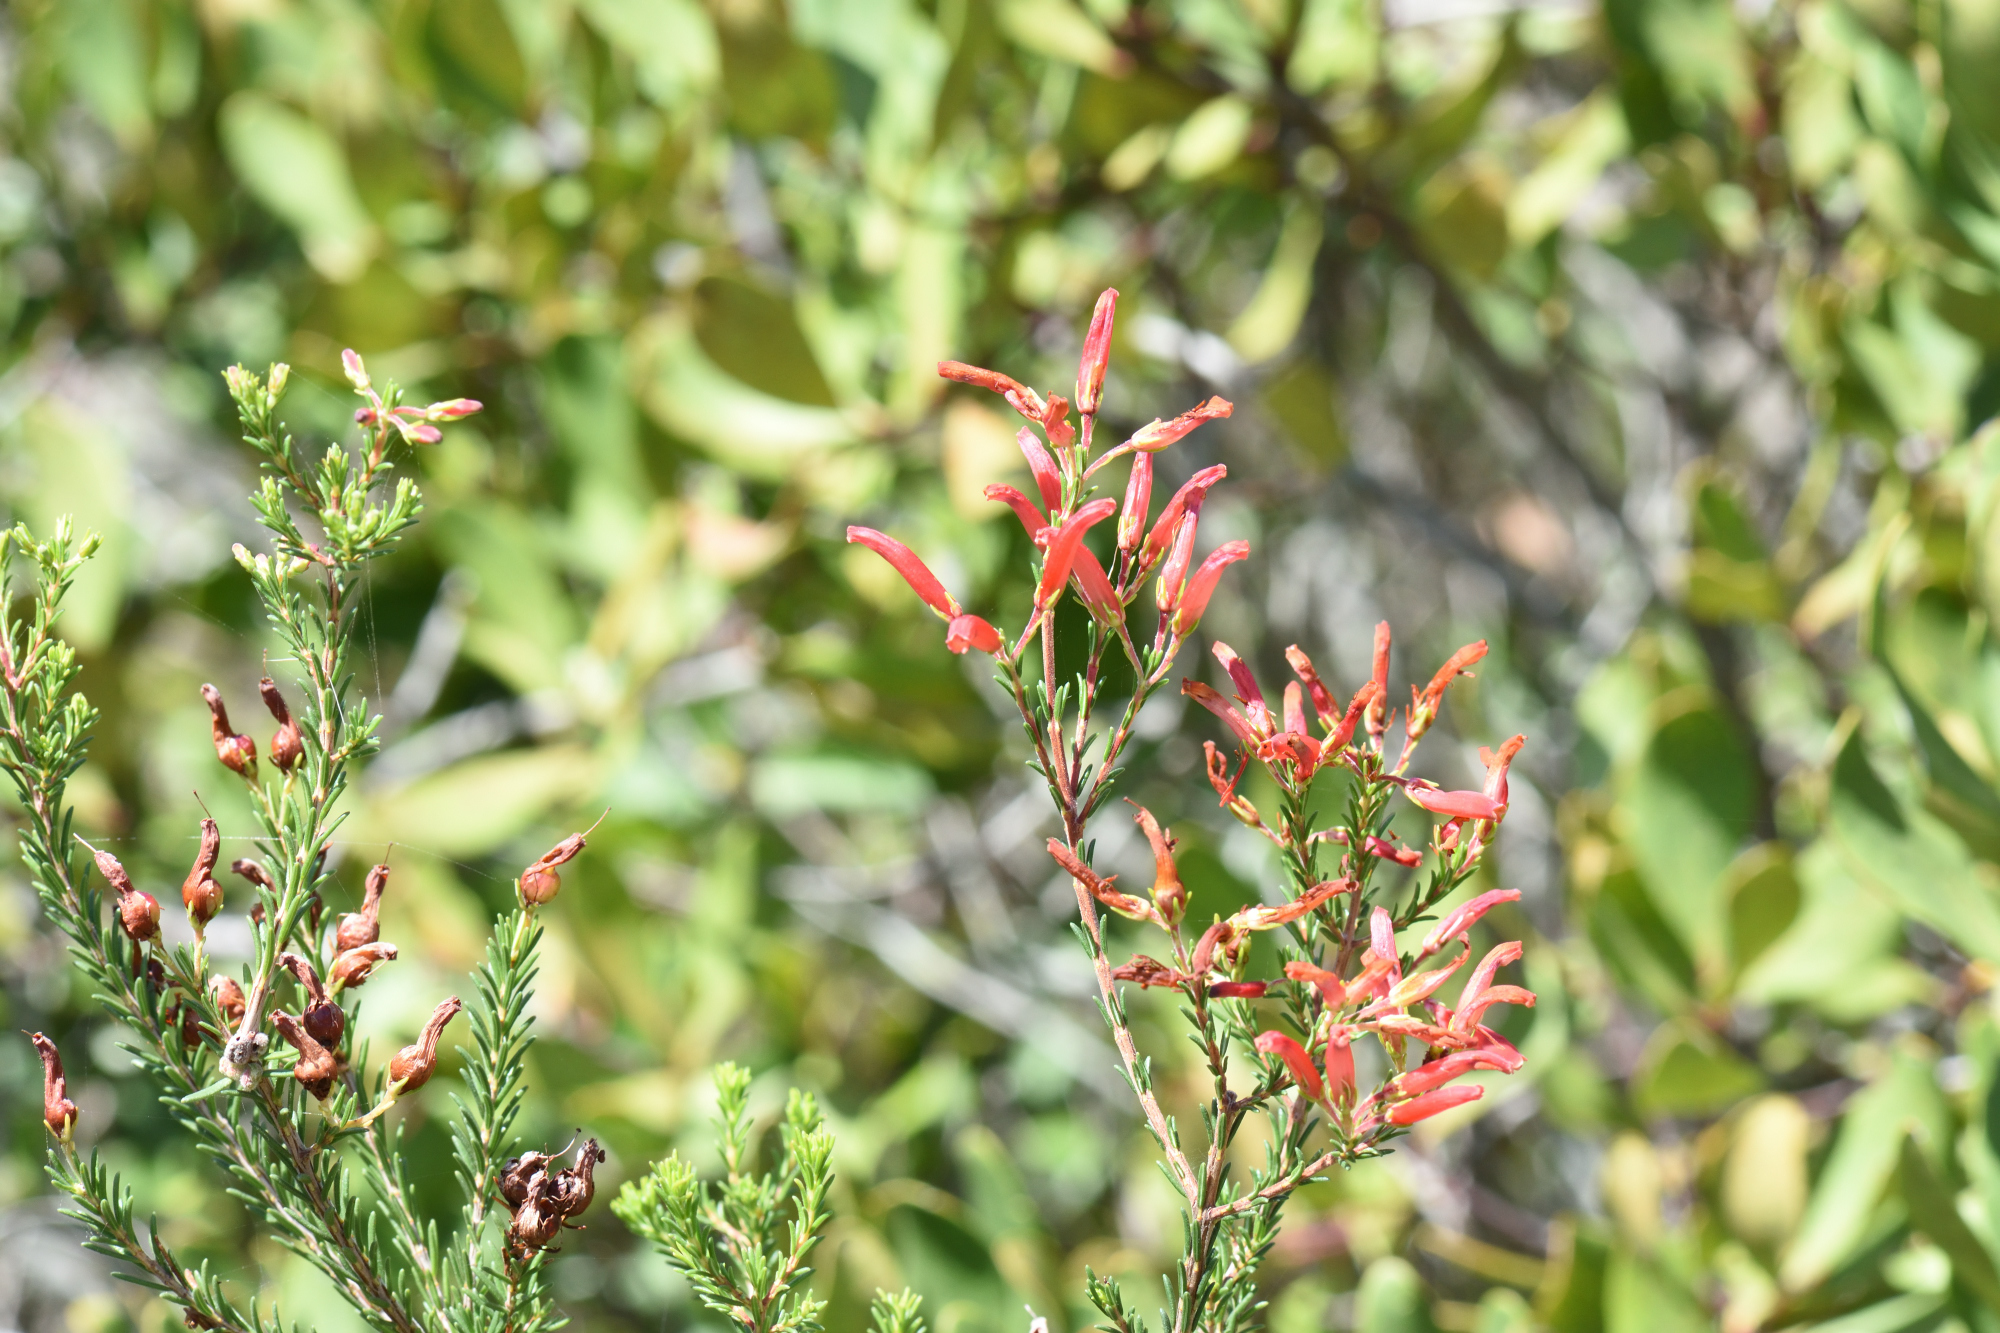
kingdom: Plantae
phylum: Tracheophyta
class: Magnoliopsida
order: Ericales
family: Ericaceae
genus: Erica
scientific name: Erica chloroloma
